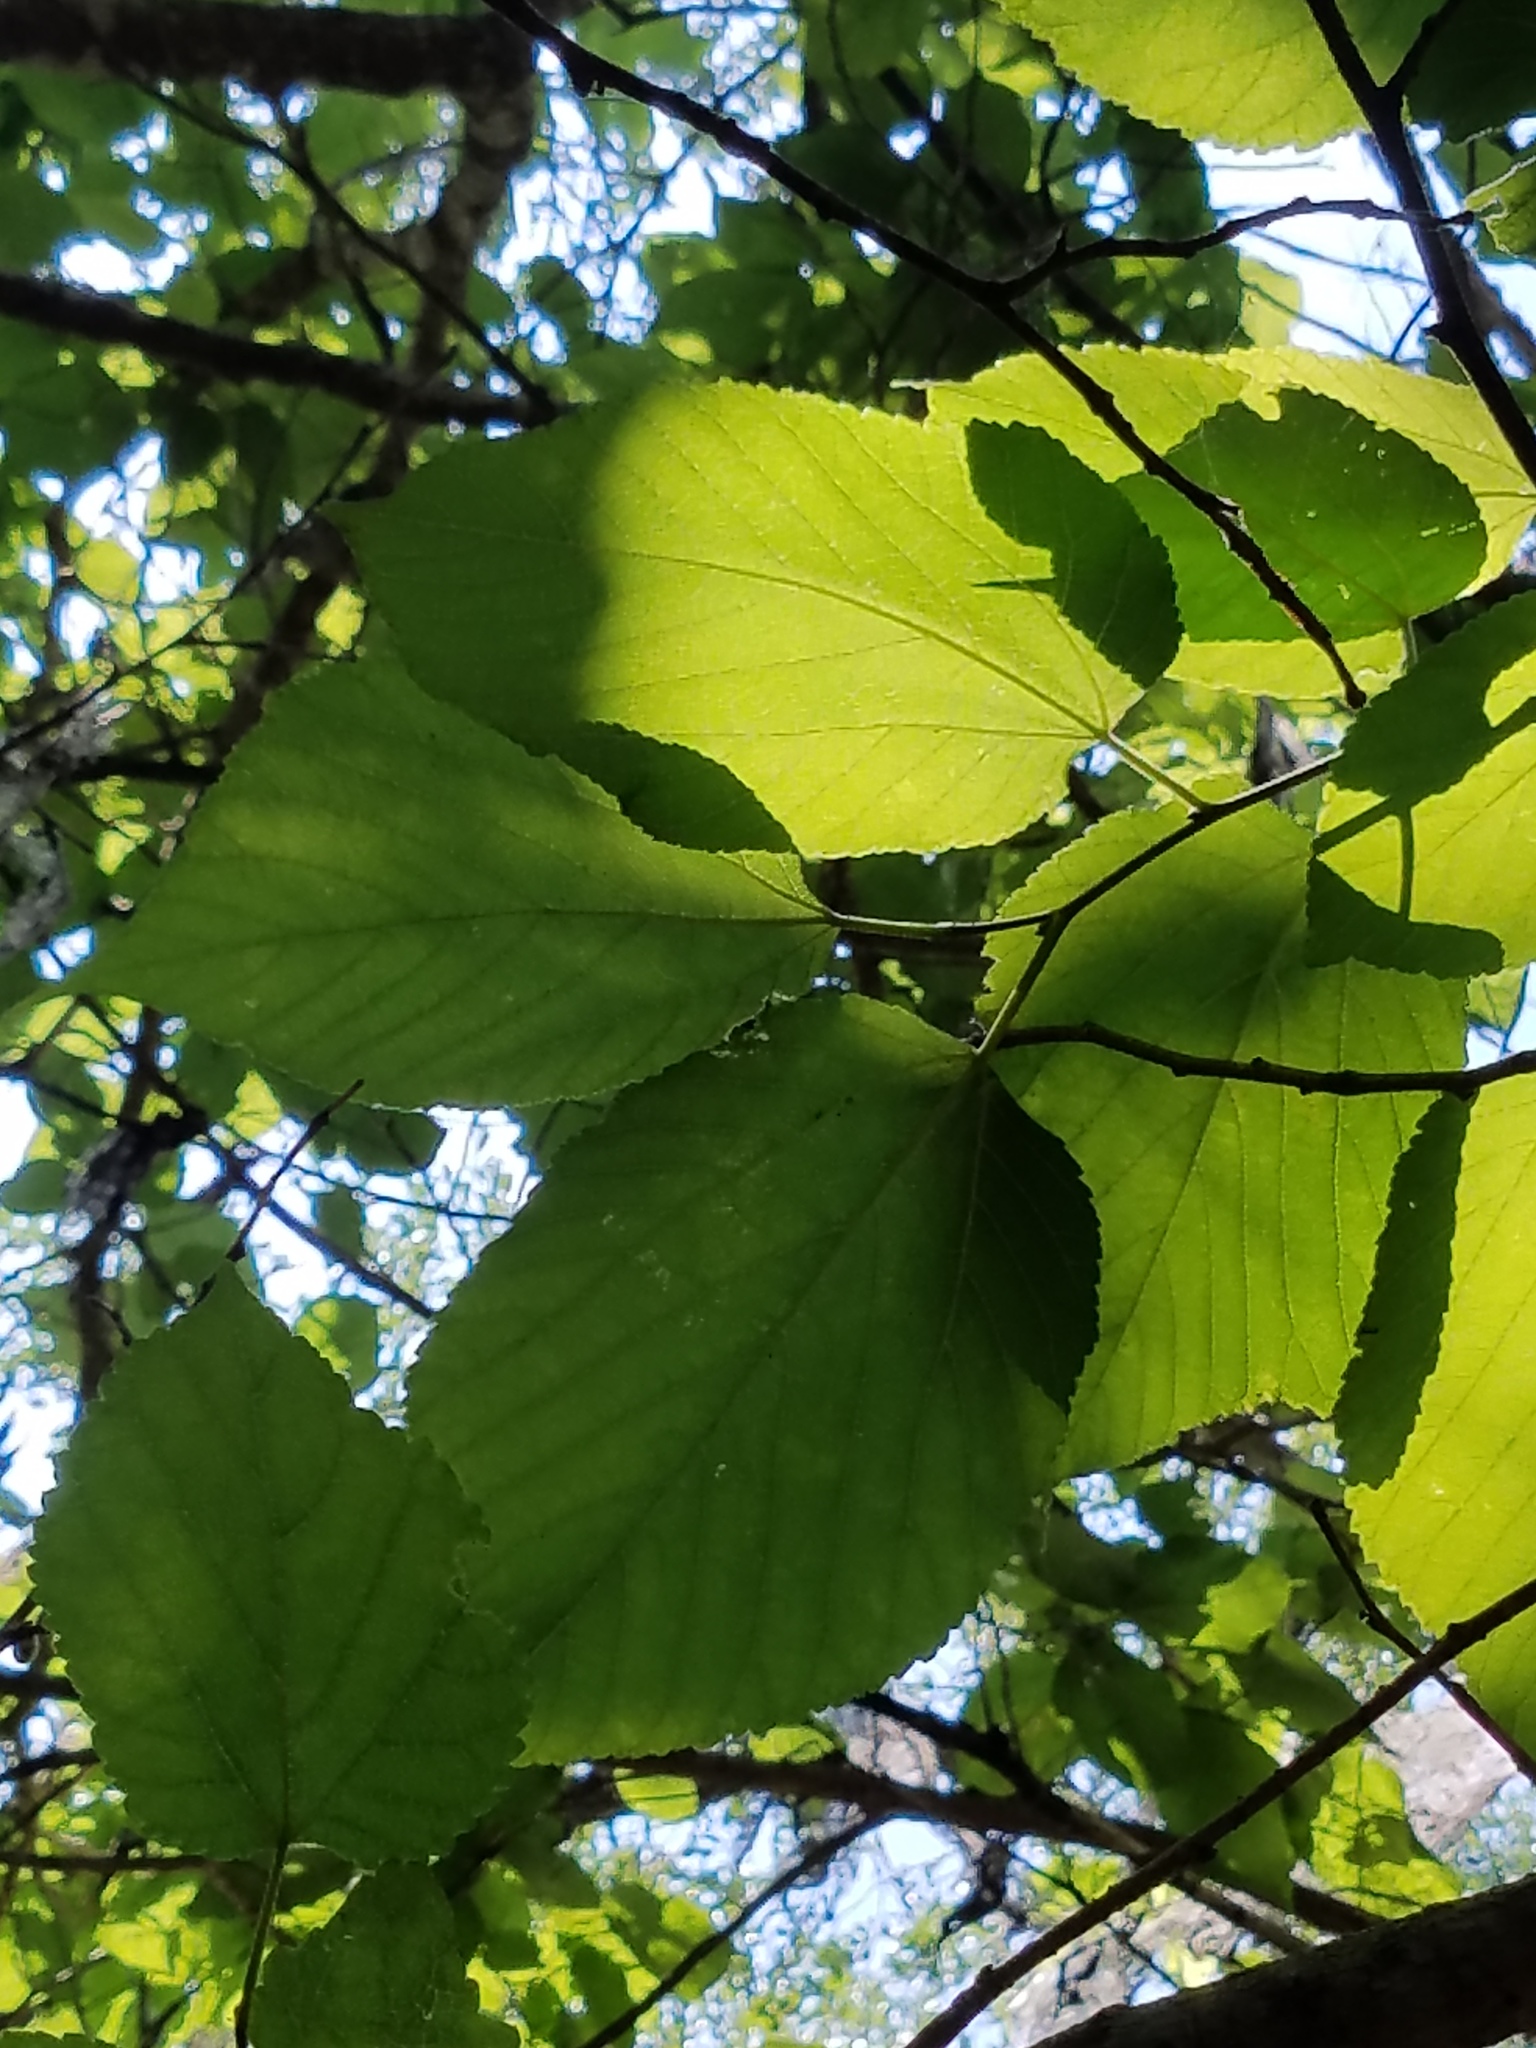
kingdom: Plantae
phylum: Tracheophyta
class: Magnoliopsida
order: Rosales
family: Moraceae
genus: Morus
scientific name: Morus rubra
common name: Red mulberry
